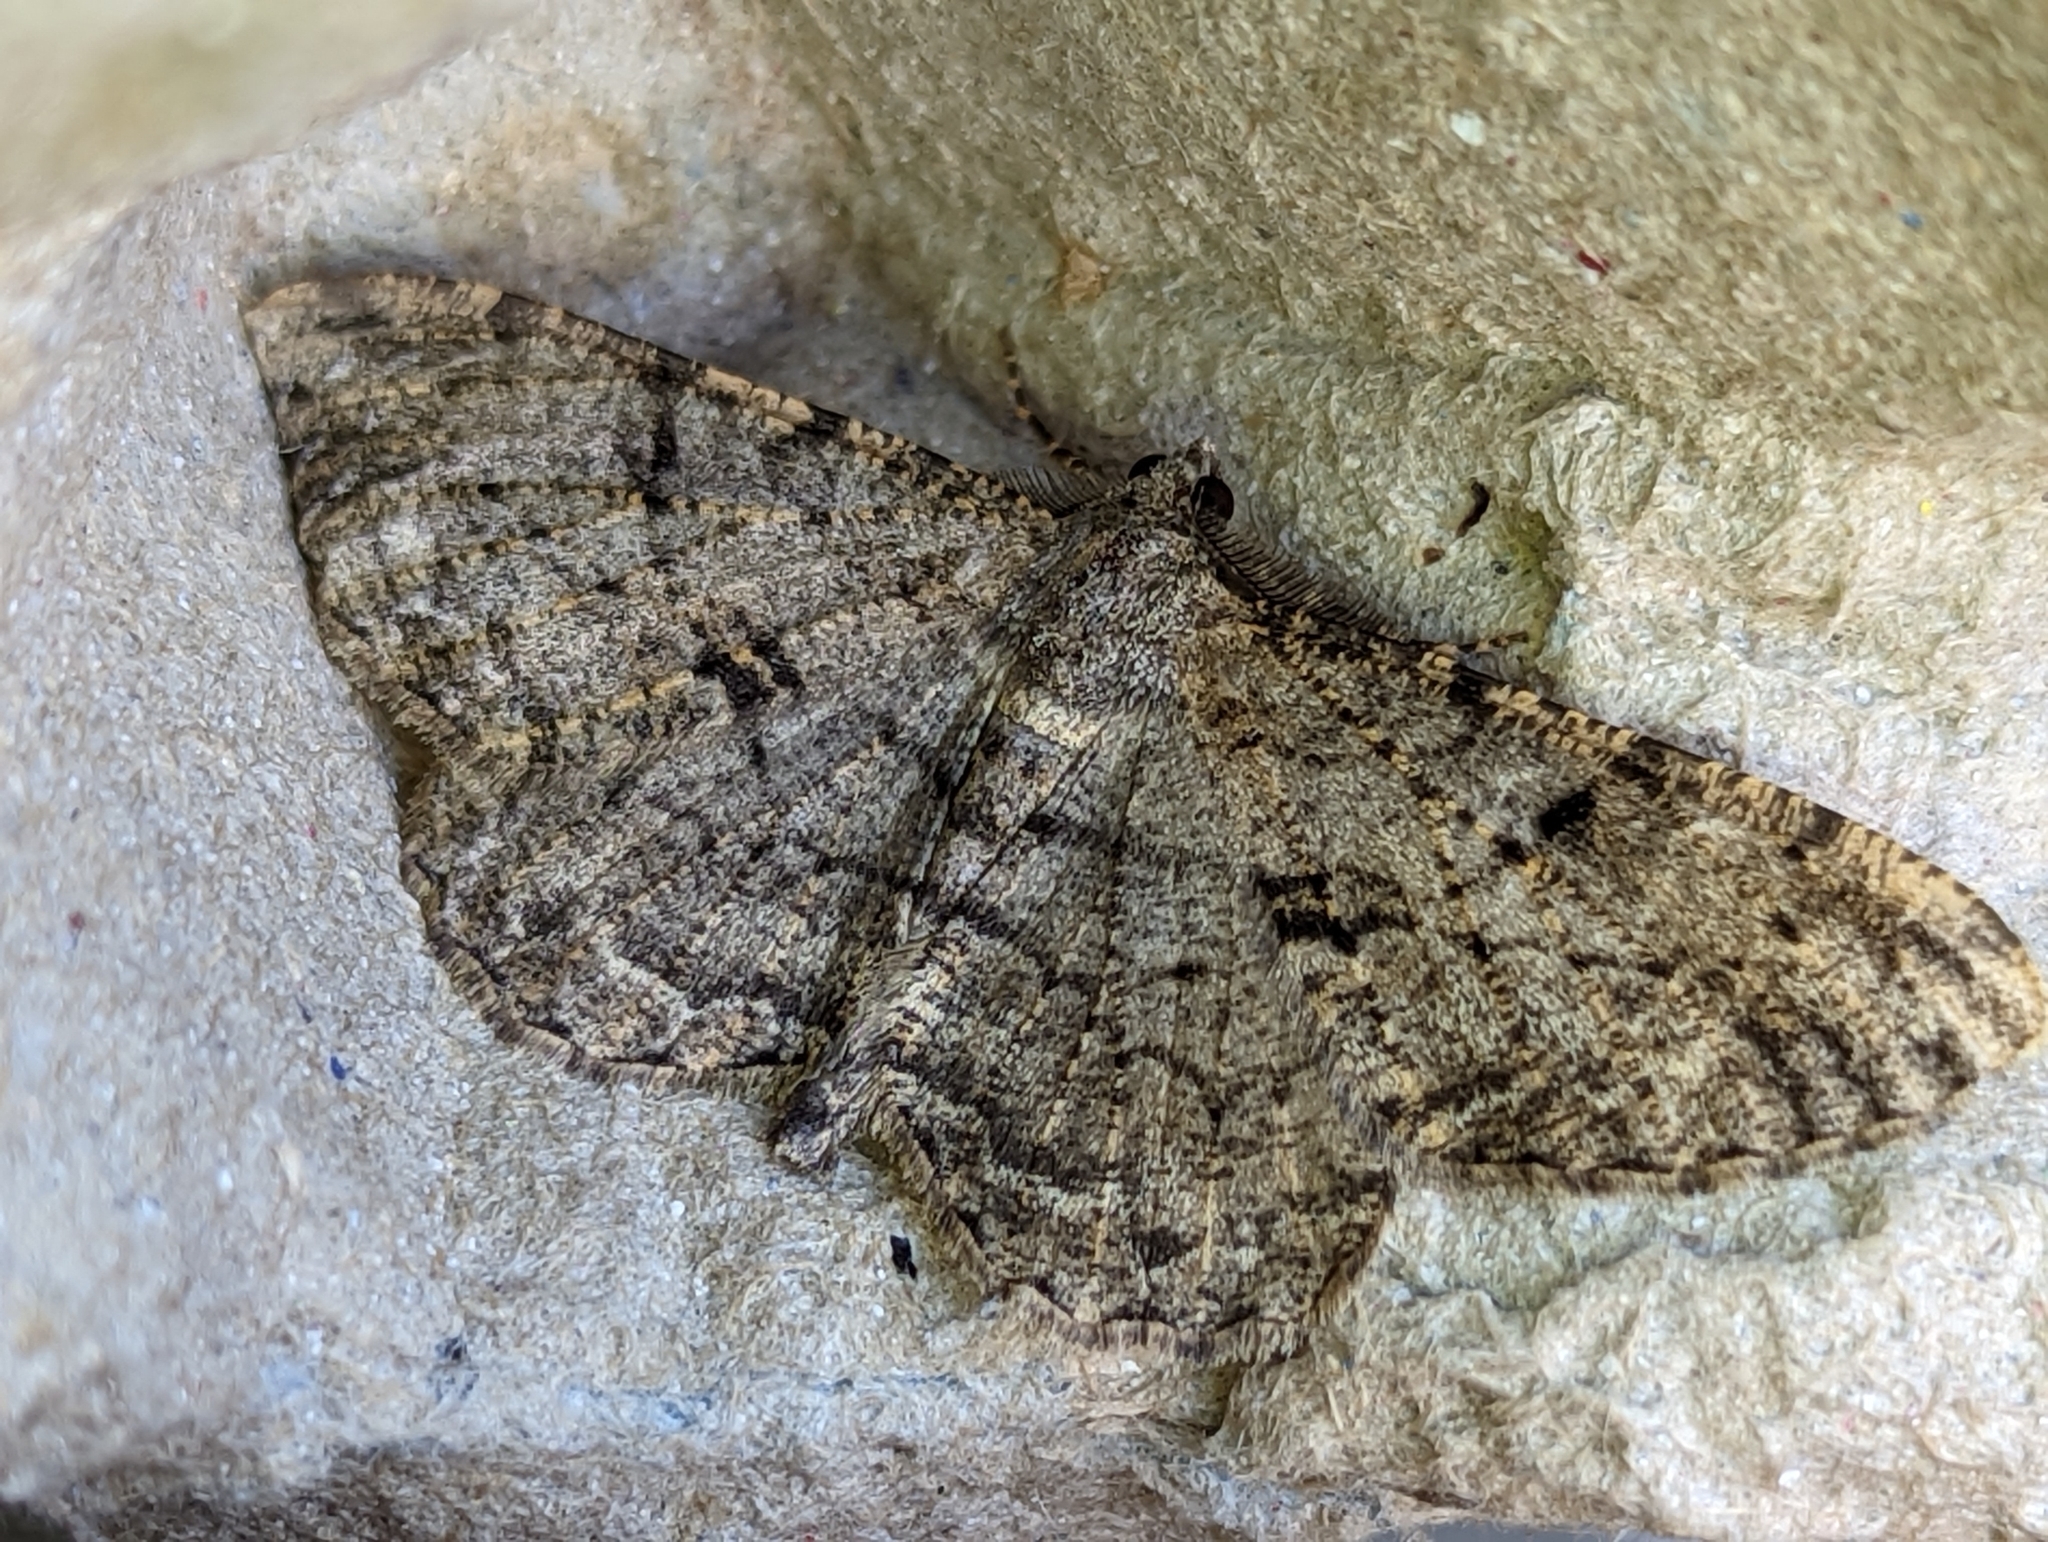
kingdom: Animalia
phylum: Arthropoda
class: Insecta
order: Lepidoptera
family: Geometridae
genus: Peribatodes
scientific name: Peribatodes rhomboidaria
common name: Willow beauty
